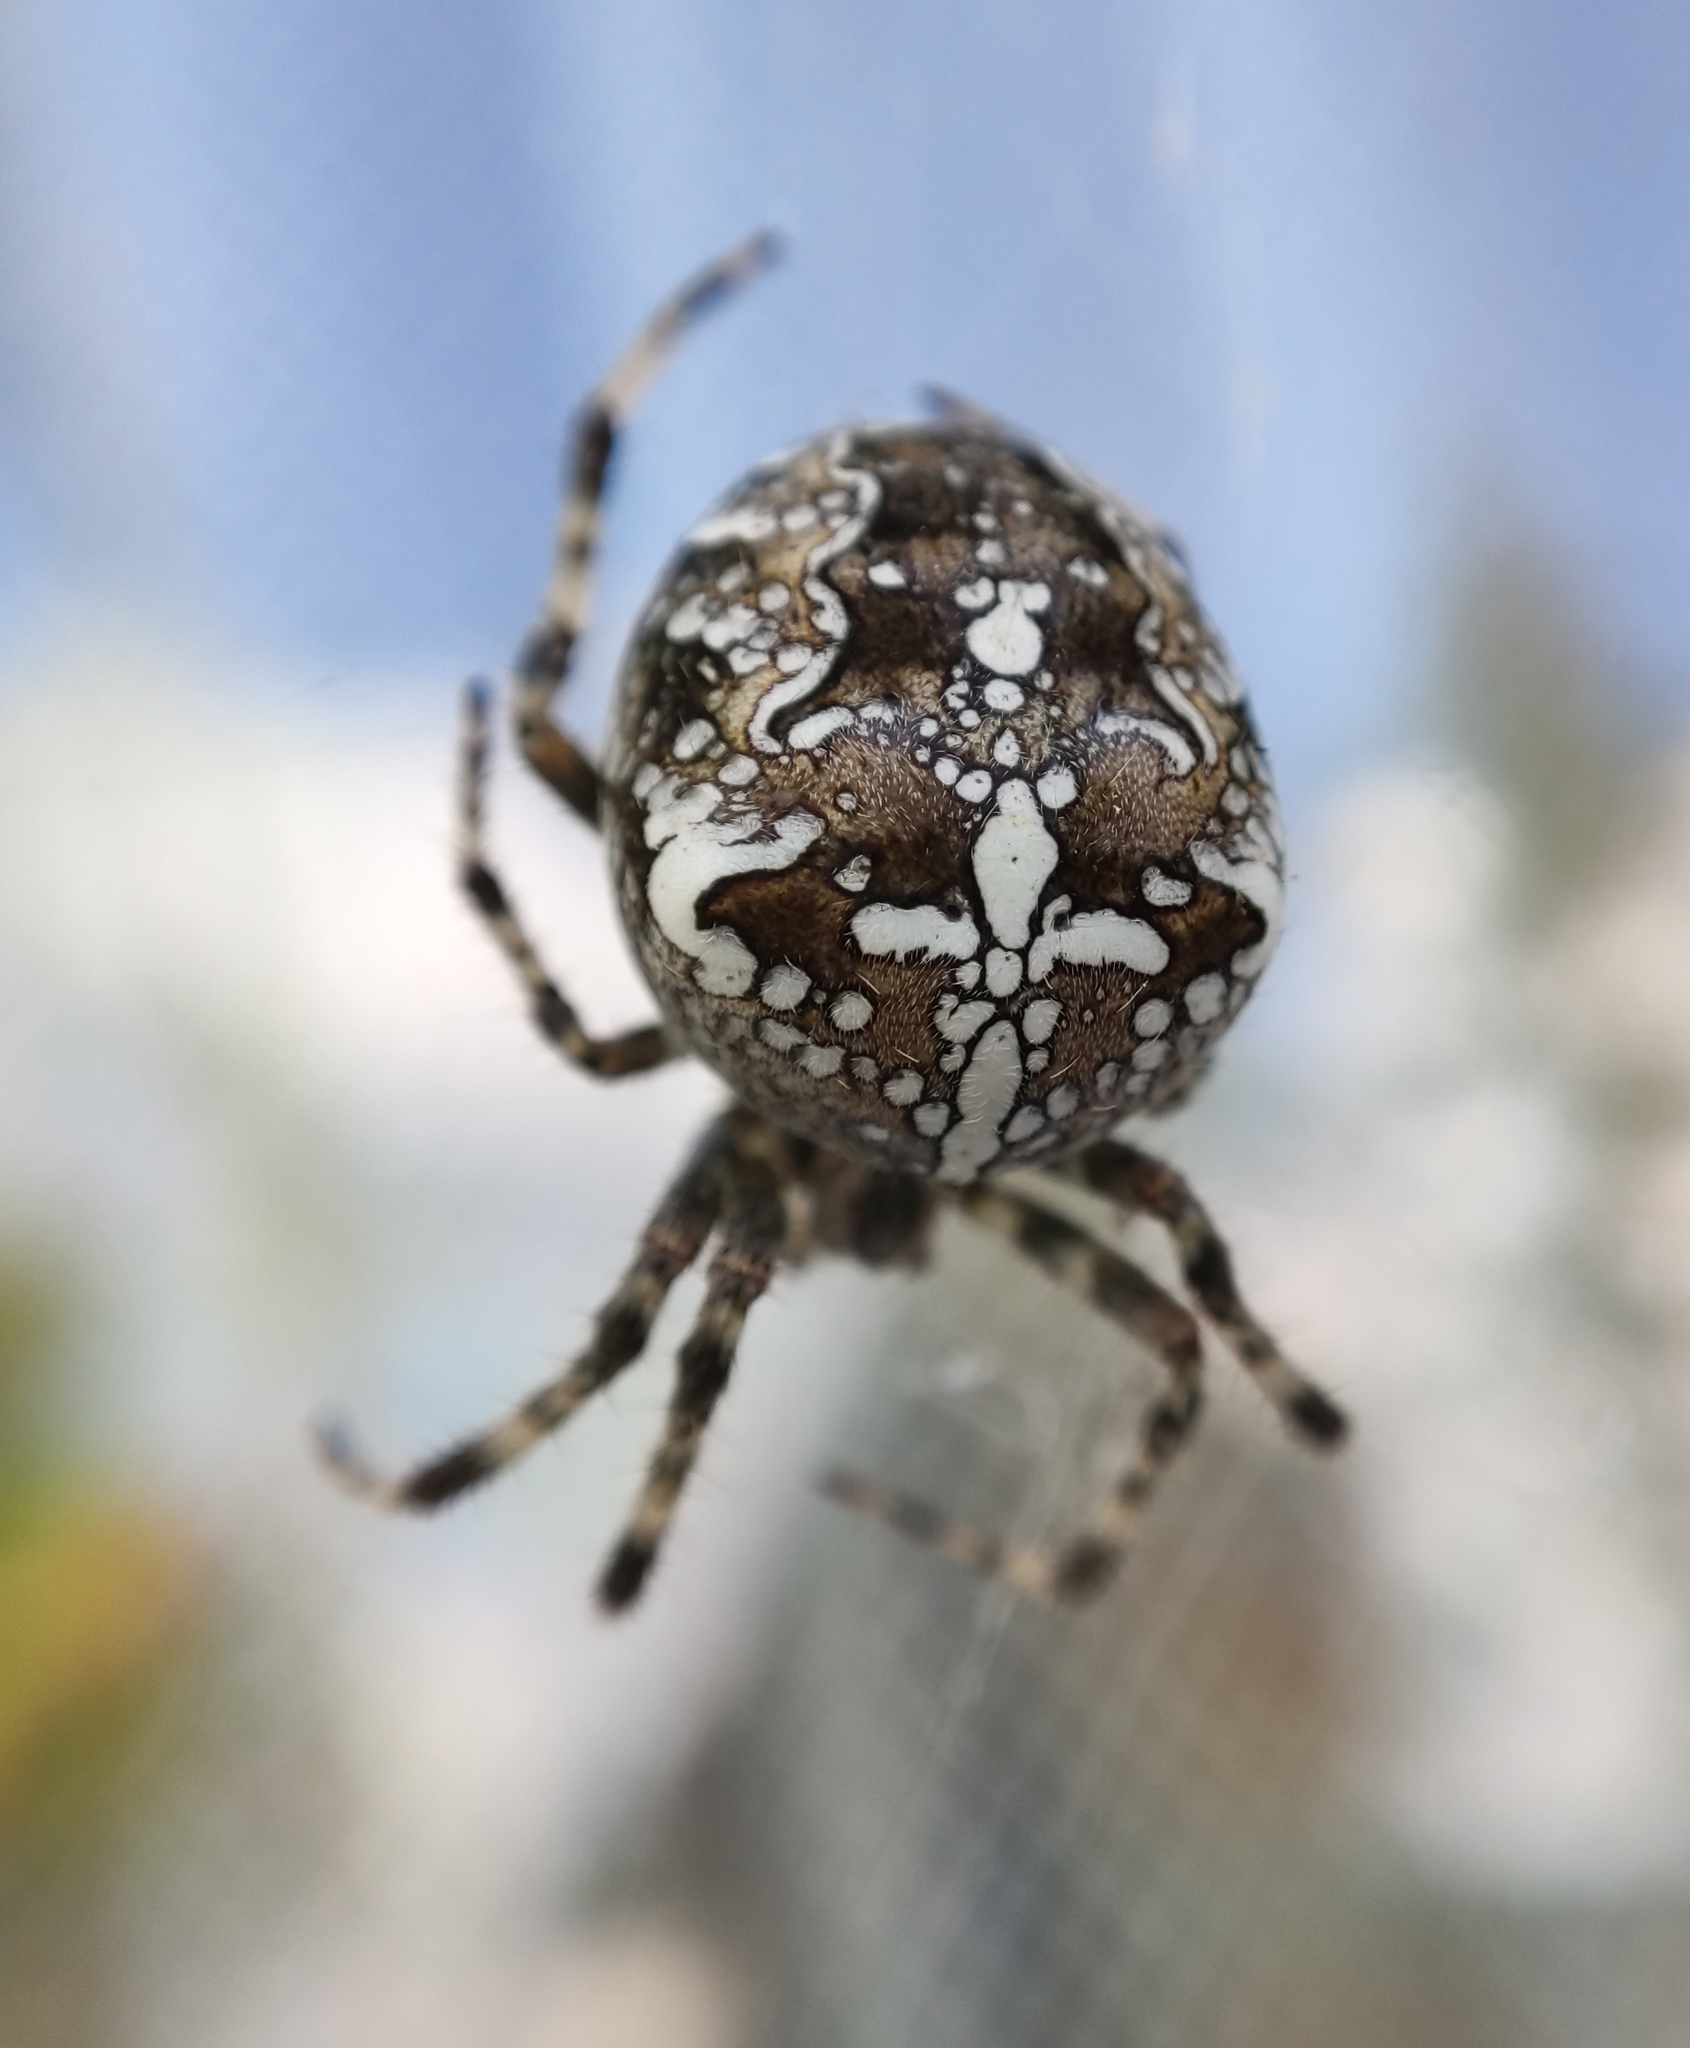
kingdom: Animalia
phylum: Arthropoda
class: Arachnida
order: Araneae
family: Araneidae
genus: Araneus
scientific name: Araneus diadematus
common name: Cross orbweaver
